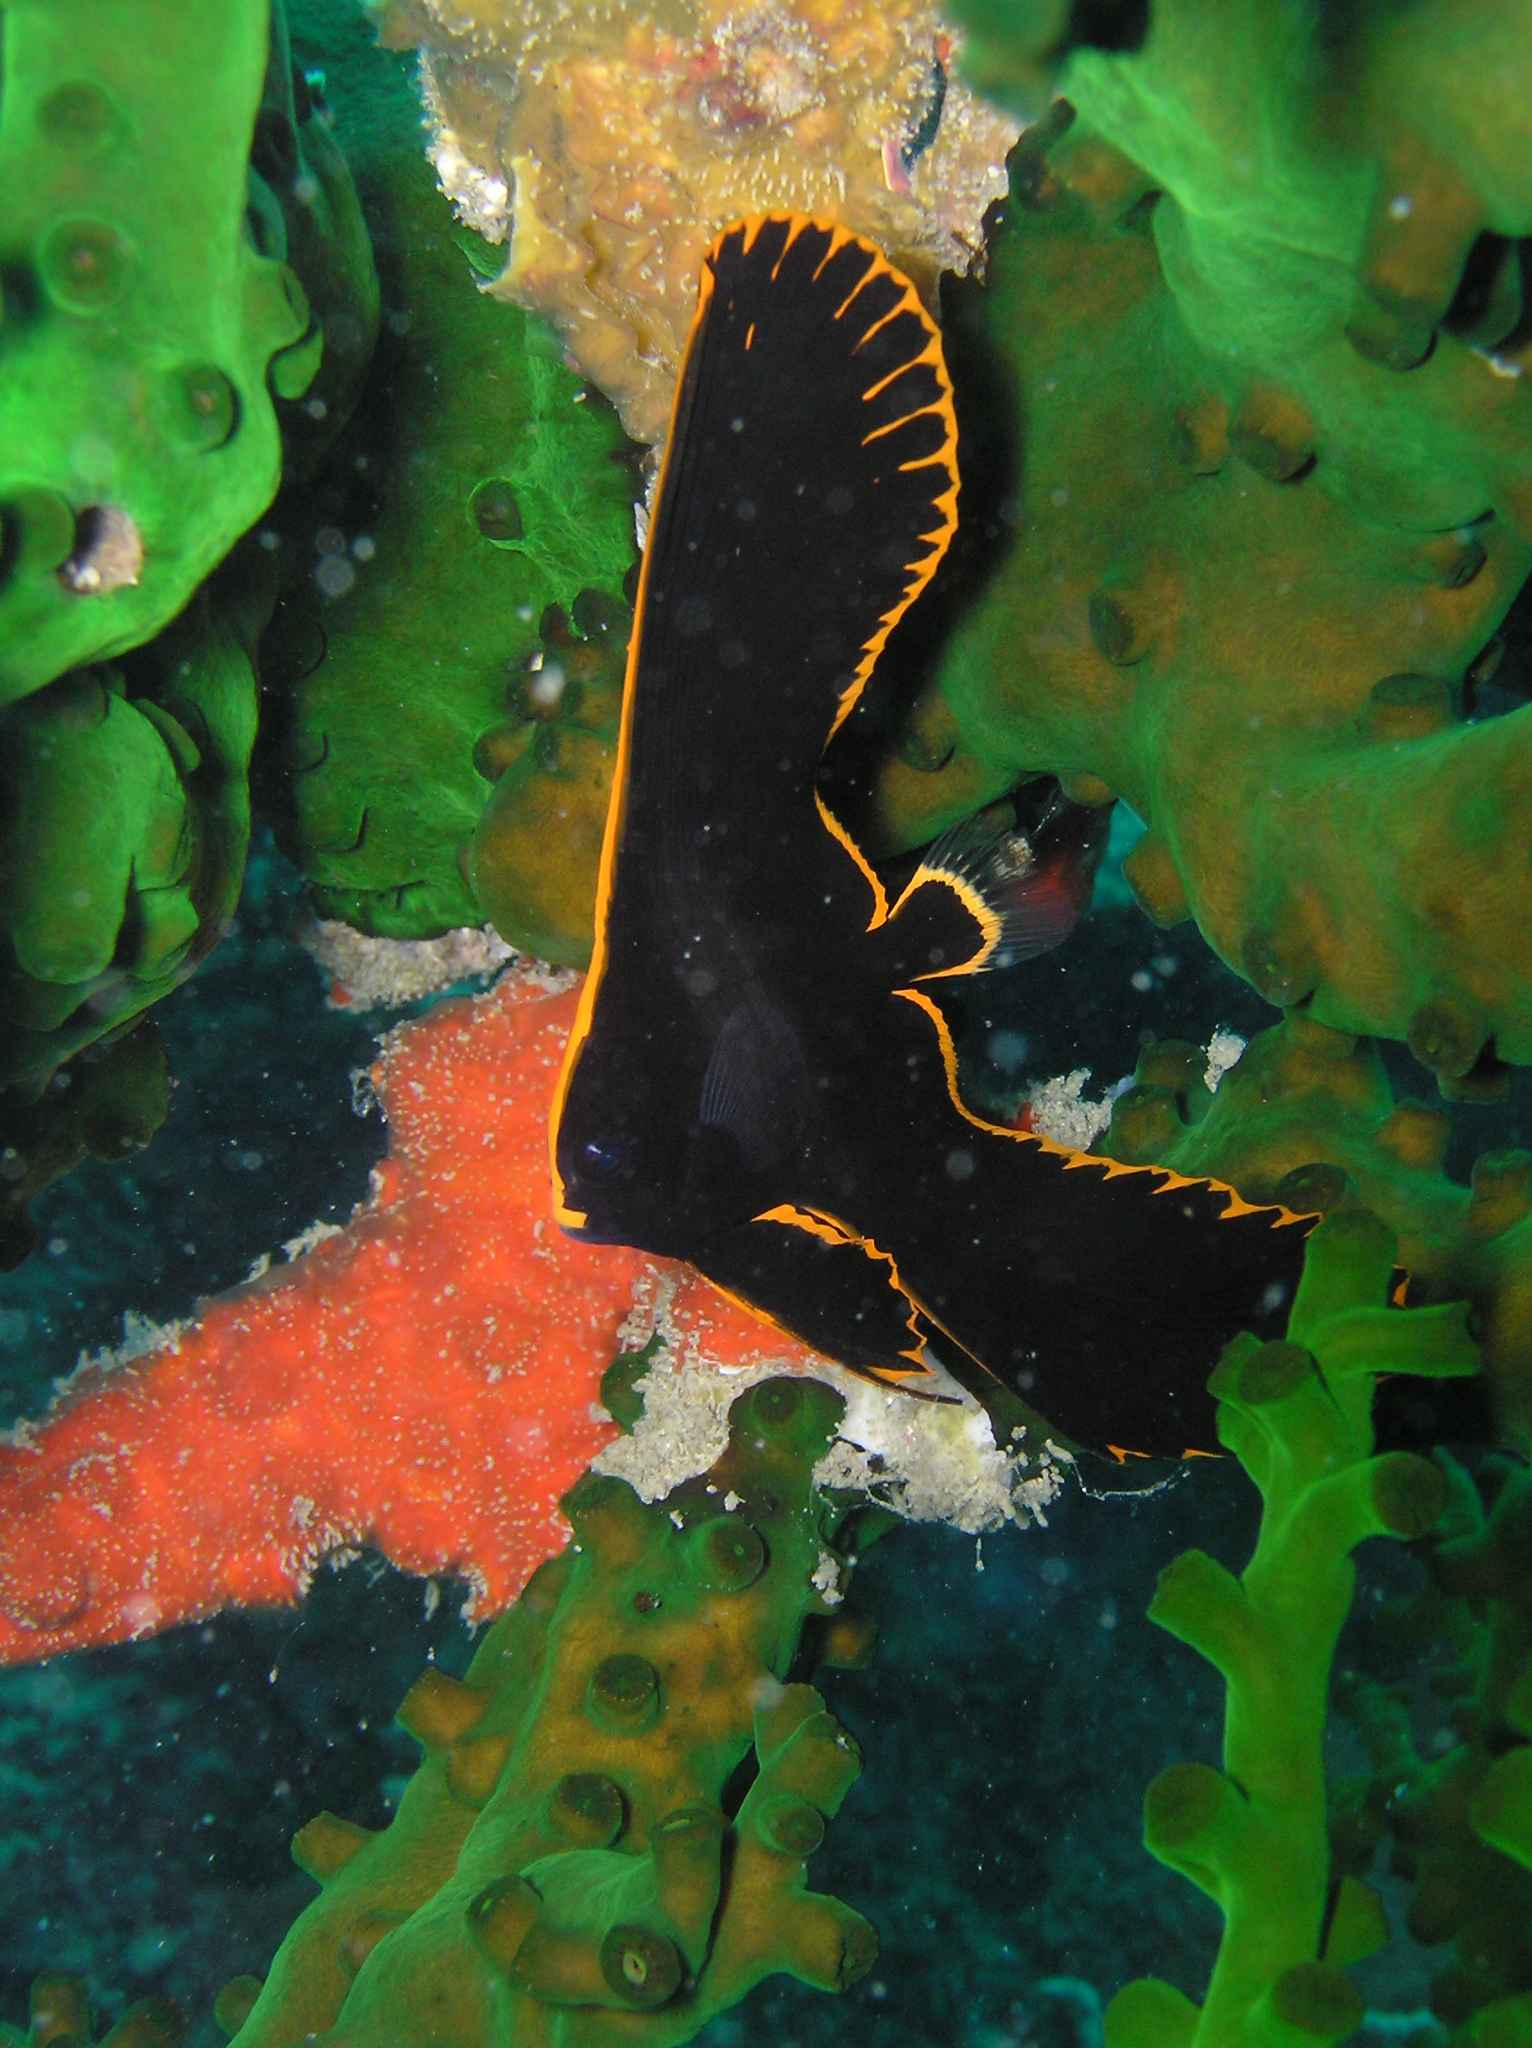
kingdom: Animalia
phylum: Chordata
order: Perciformes
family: Ephippidae
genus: Platax
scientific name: Platax pinnatus
